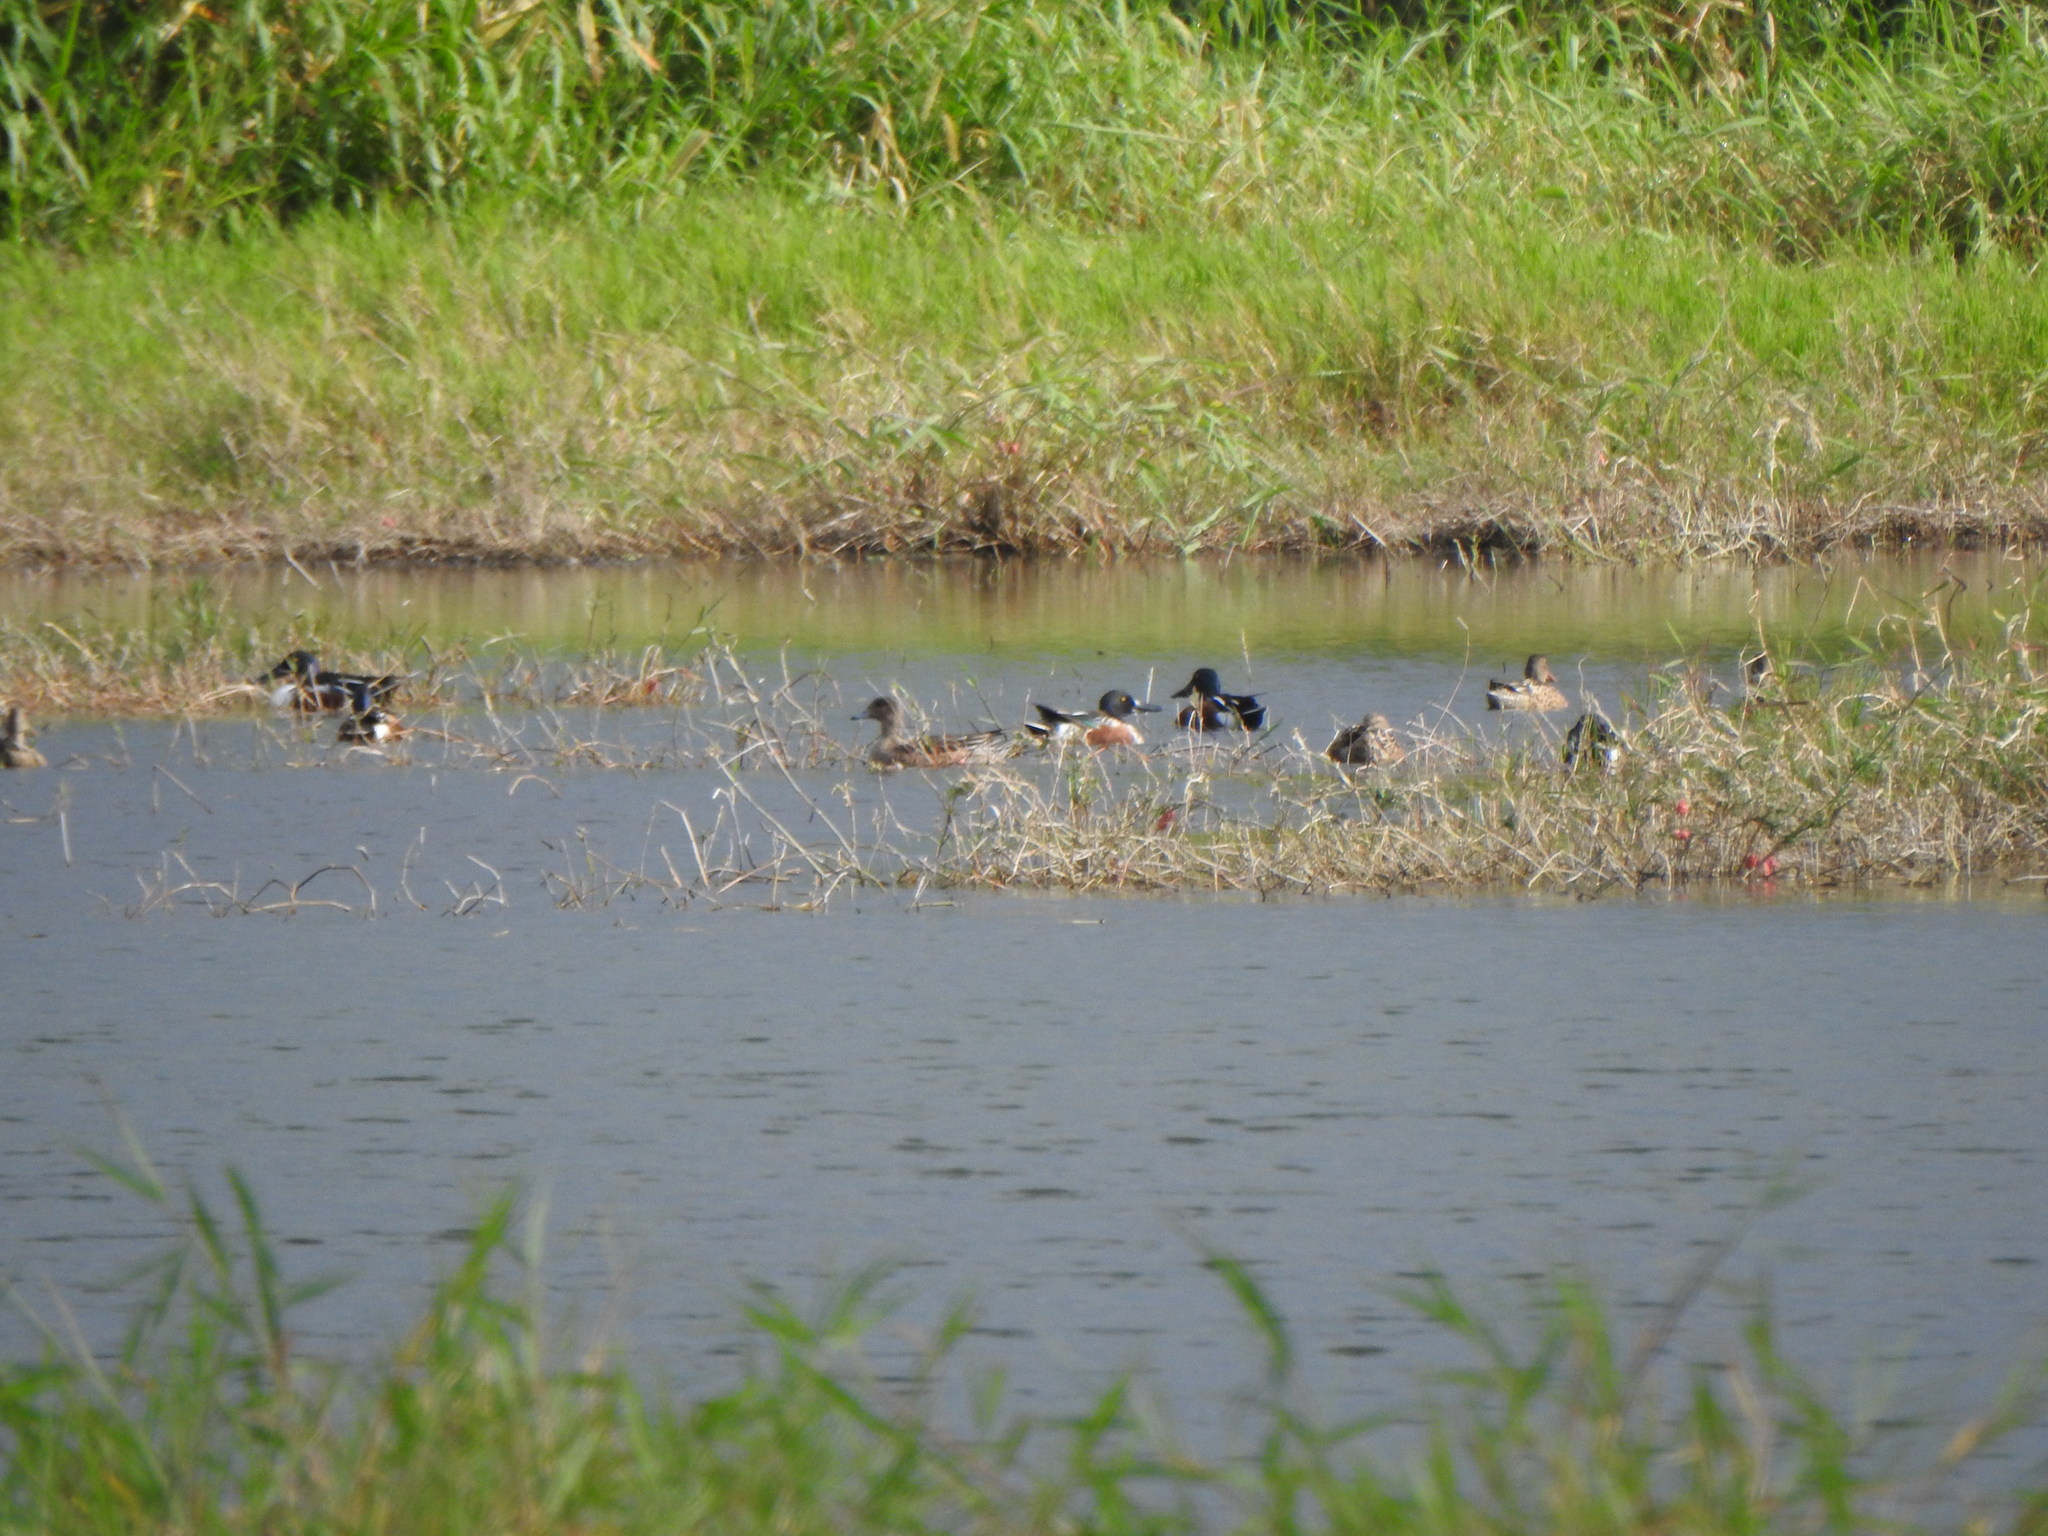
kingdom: Animalia
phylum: Chordata
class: Aves
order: Anseriformes
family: Anatidae
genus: Spatula
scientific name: Spatula clypeata
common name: Northern shoveler
